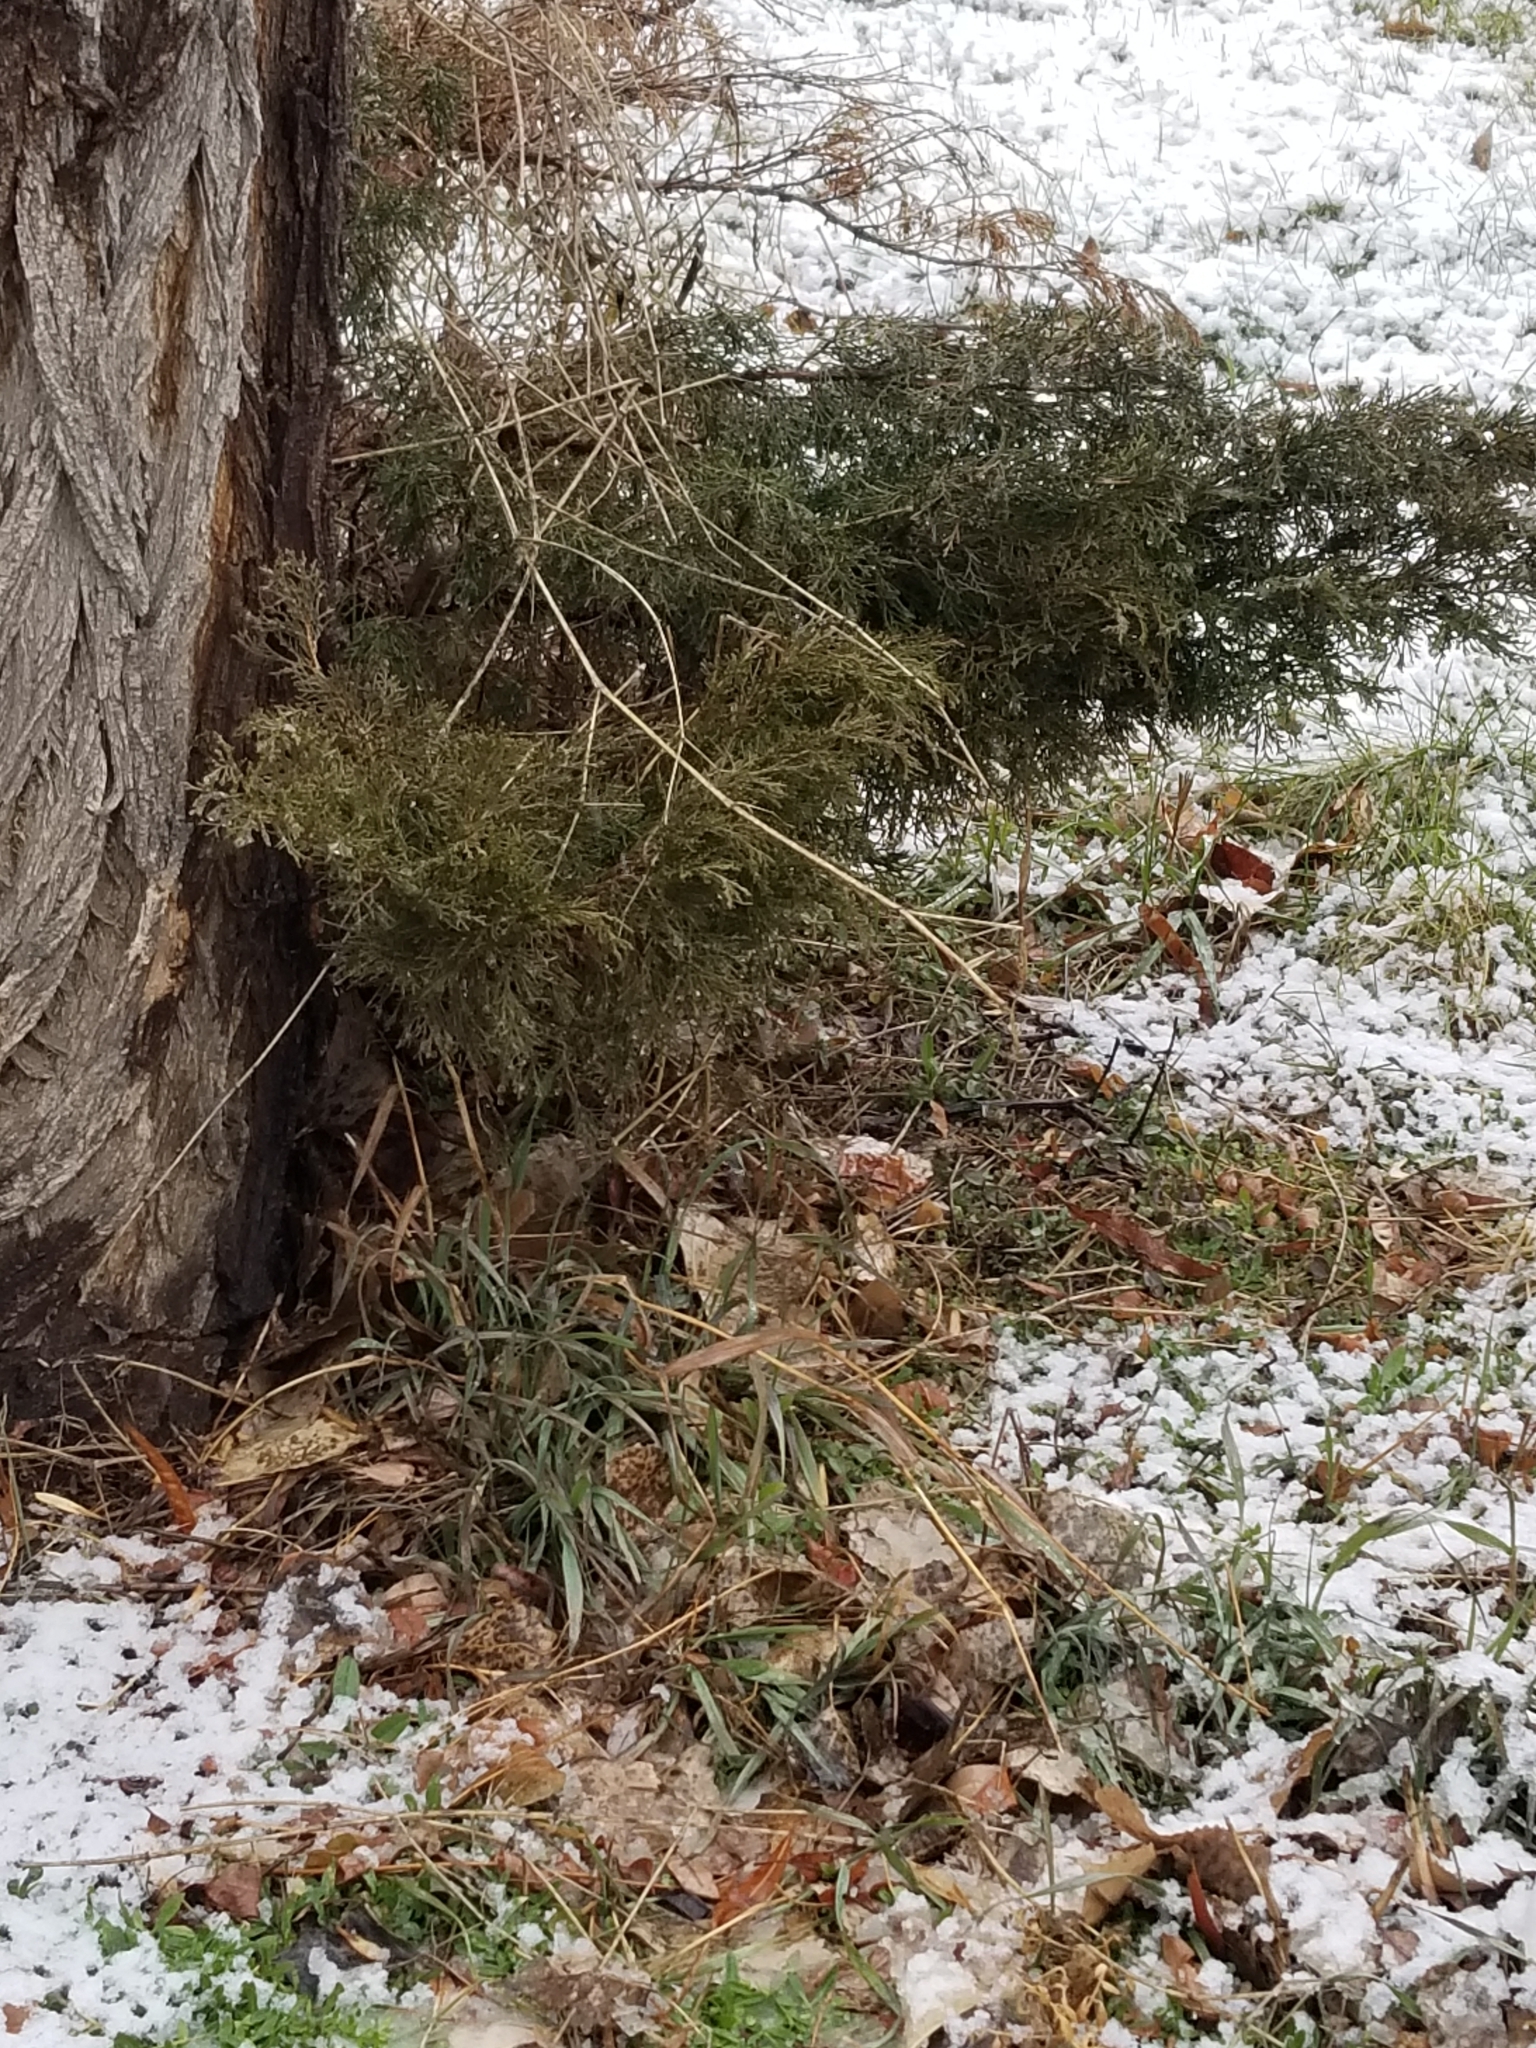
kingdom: Plantae
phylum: Tracheophyta
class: Pinopsida
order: Pinales
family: Cupressaceae
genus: Juniperus
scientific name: Juniperus scopulorum
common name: Rocky mountain juniper
